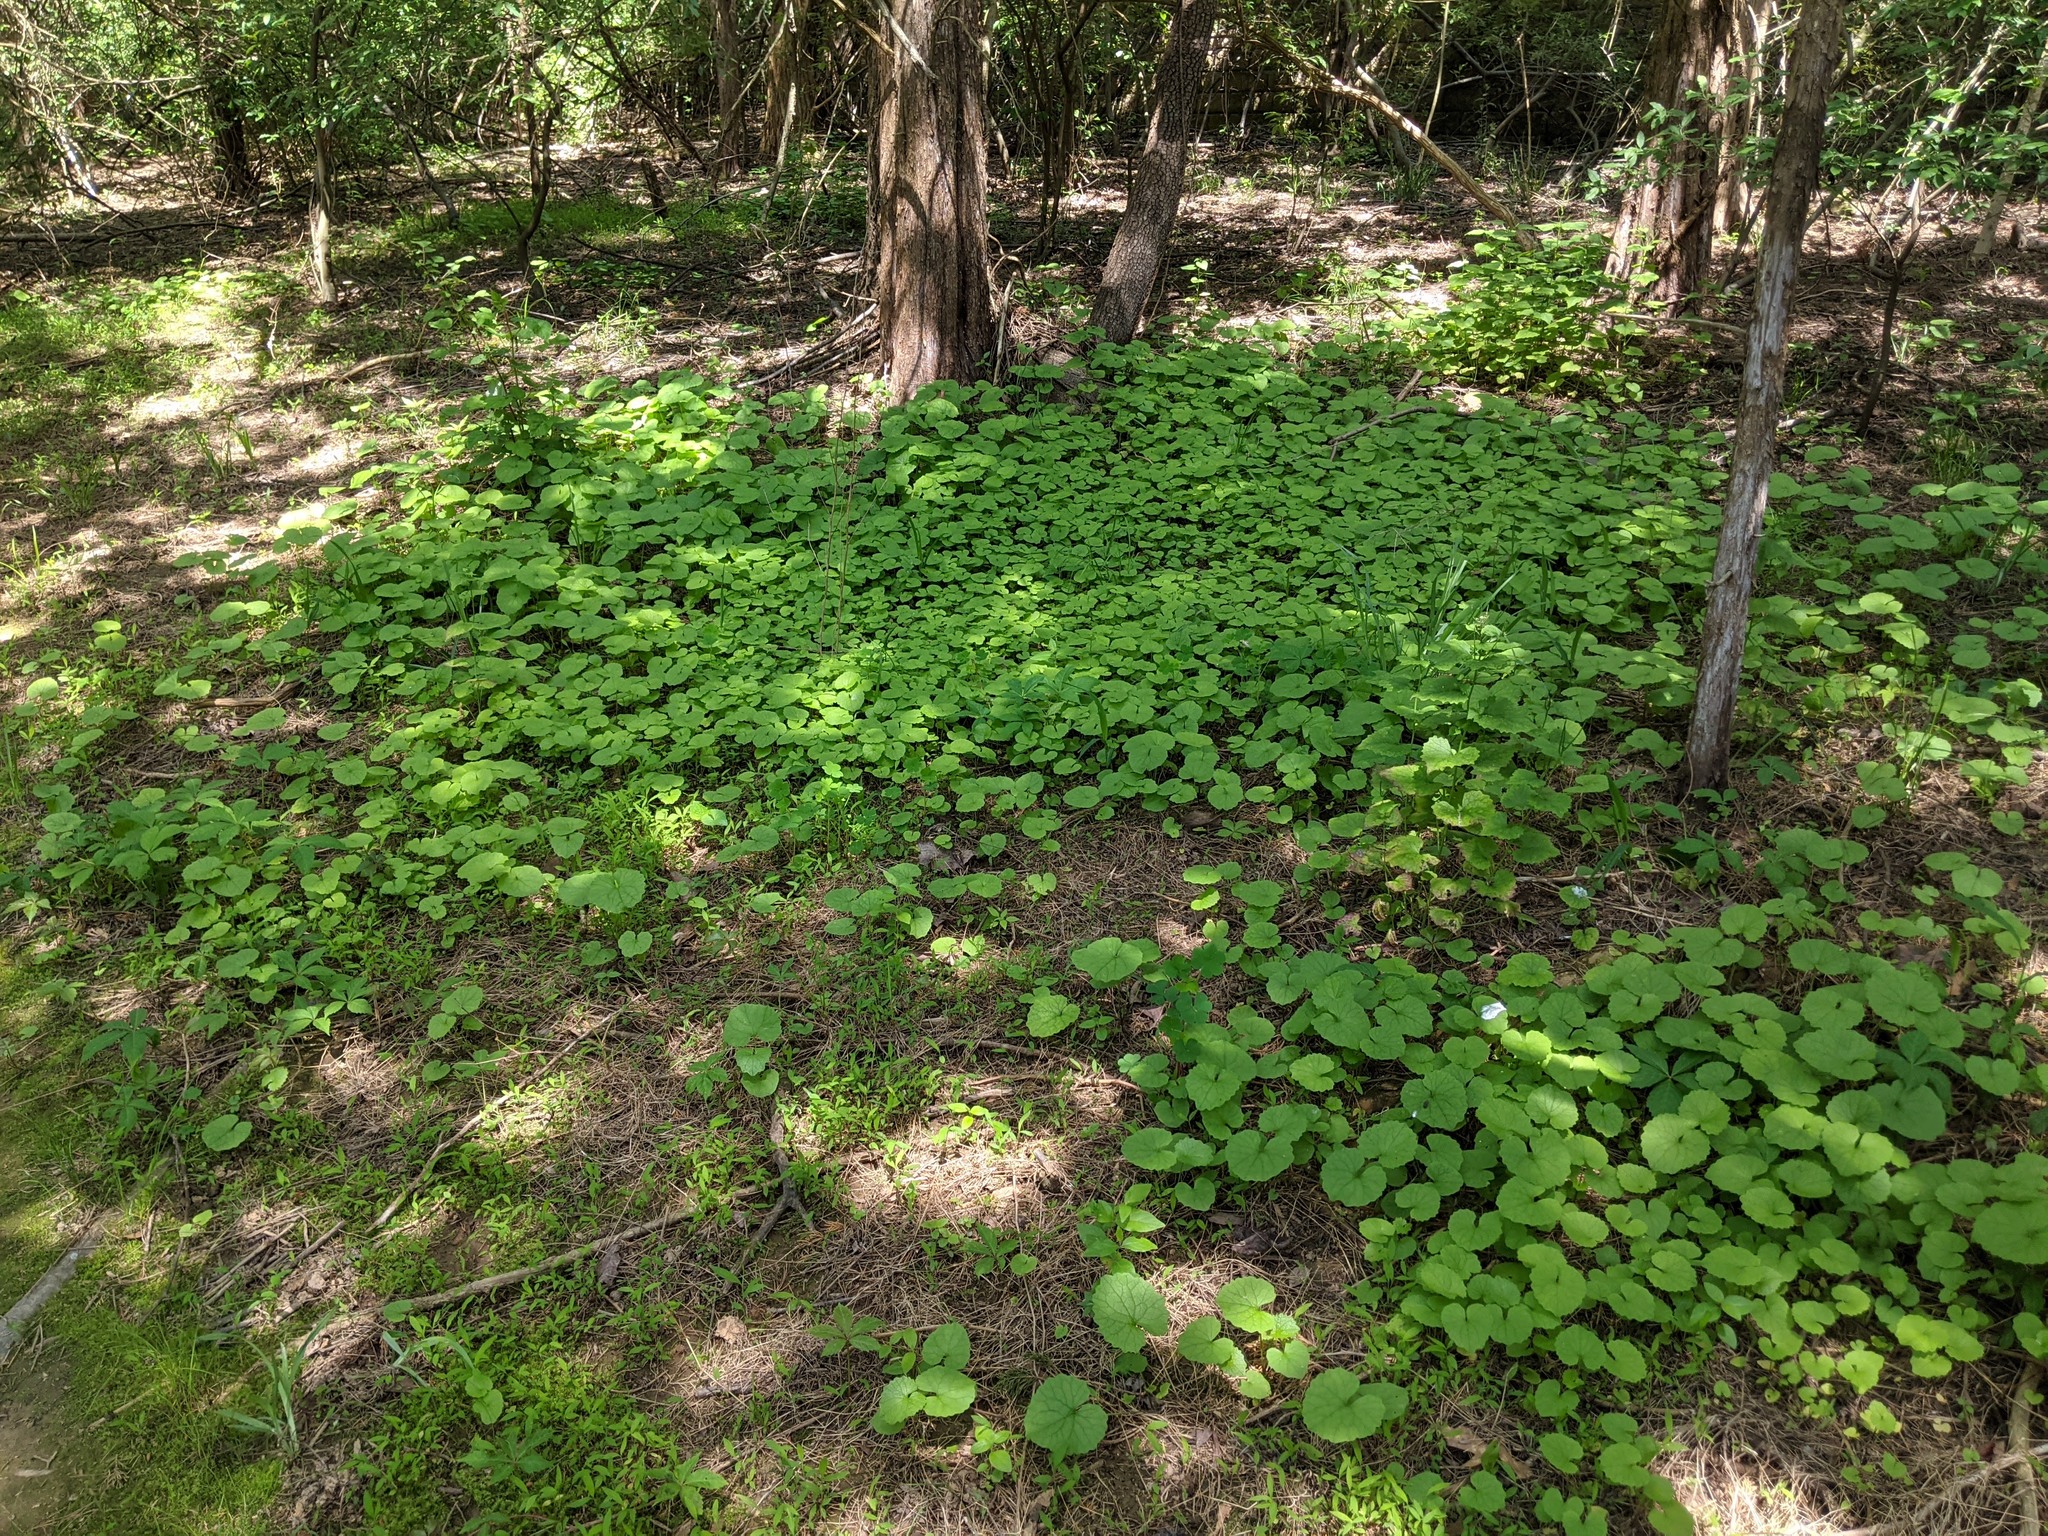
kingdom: Plantae
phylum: Tracheophyta
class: Magnoliopsida
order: Brassicales
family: Brassicaceae
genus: Alliaria
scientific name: Alliaria petiolata
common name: Garlic mustard
